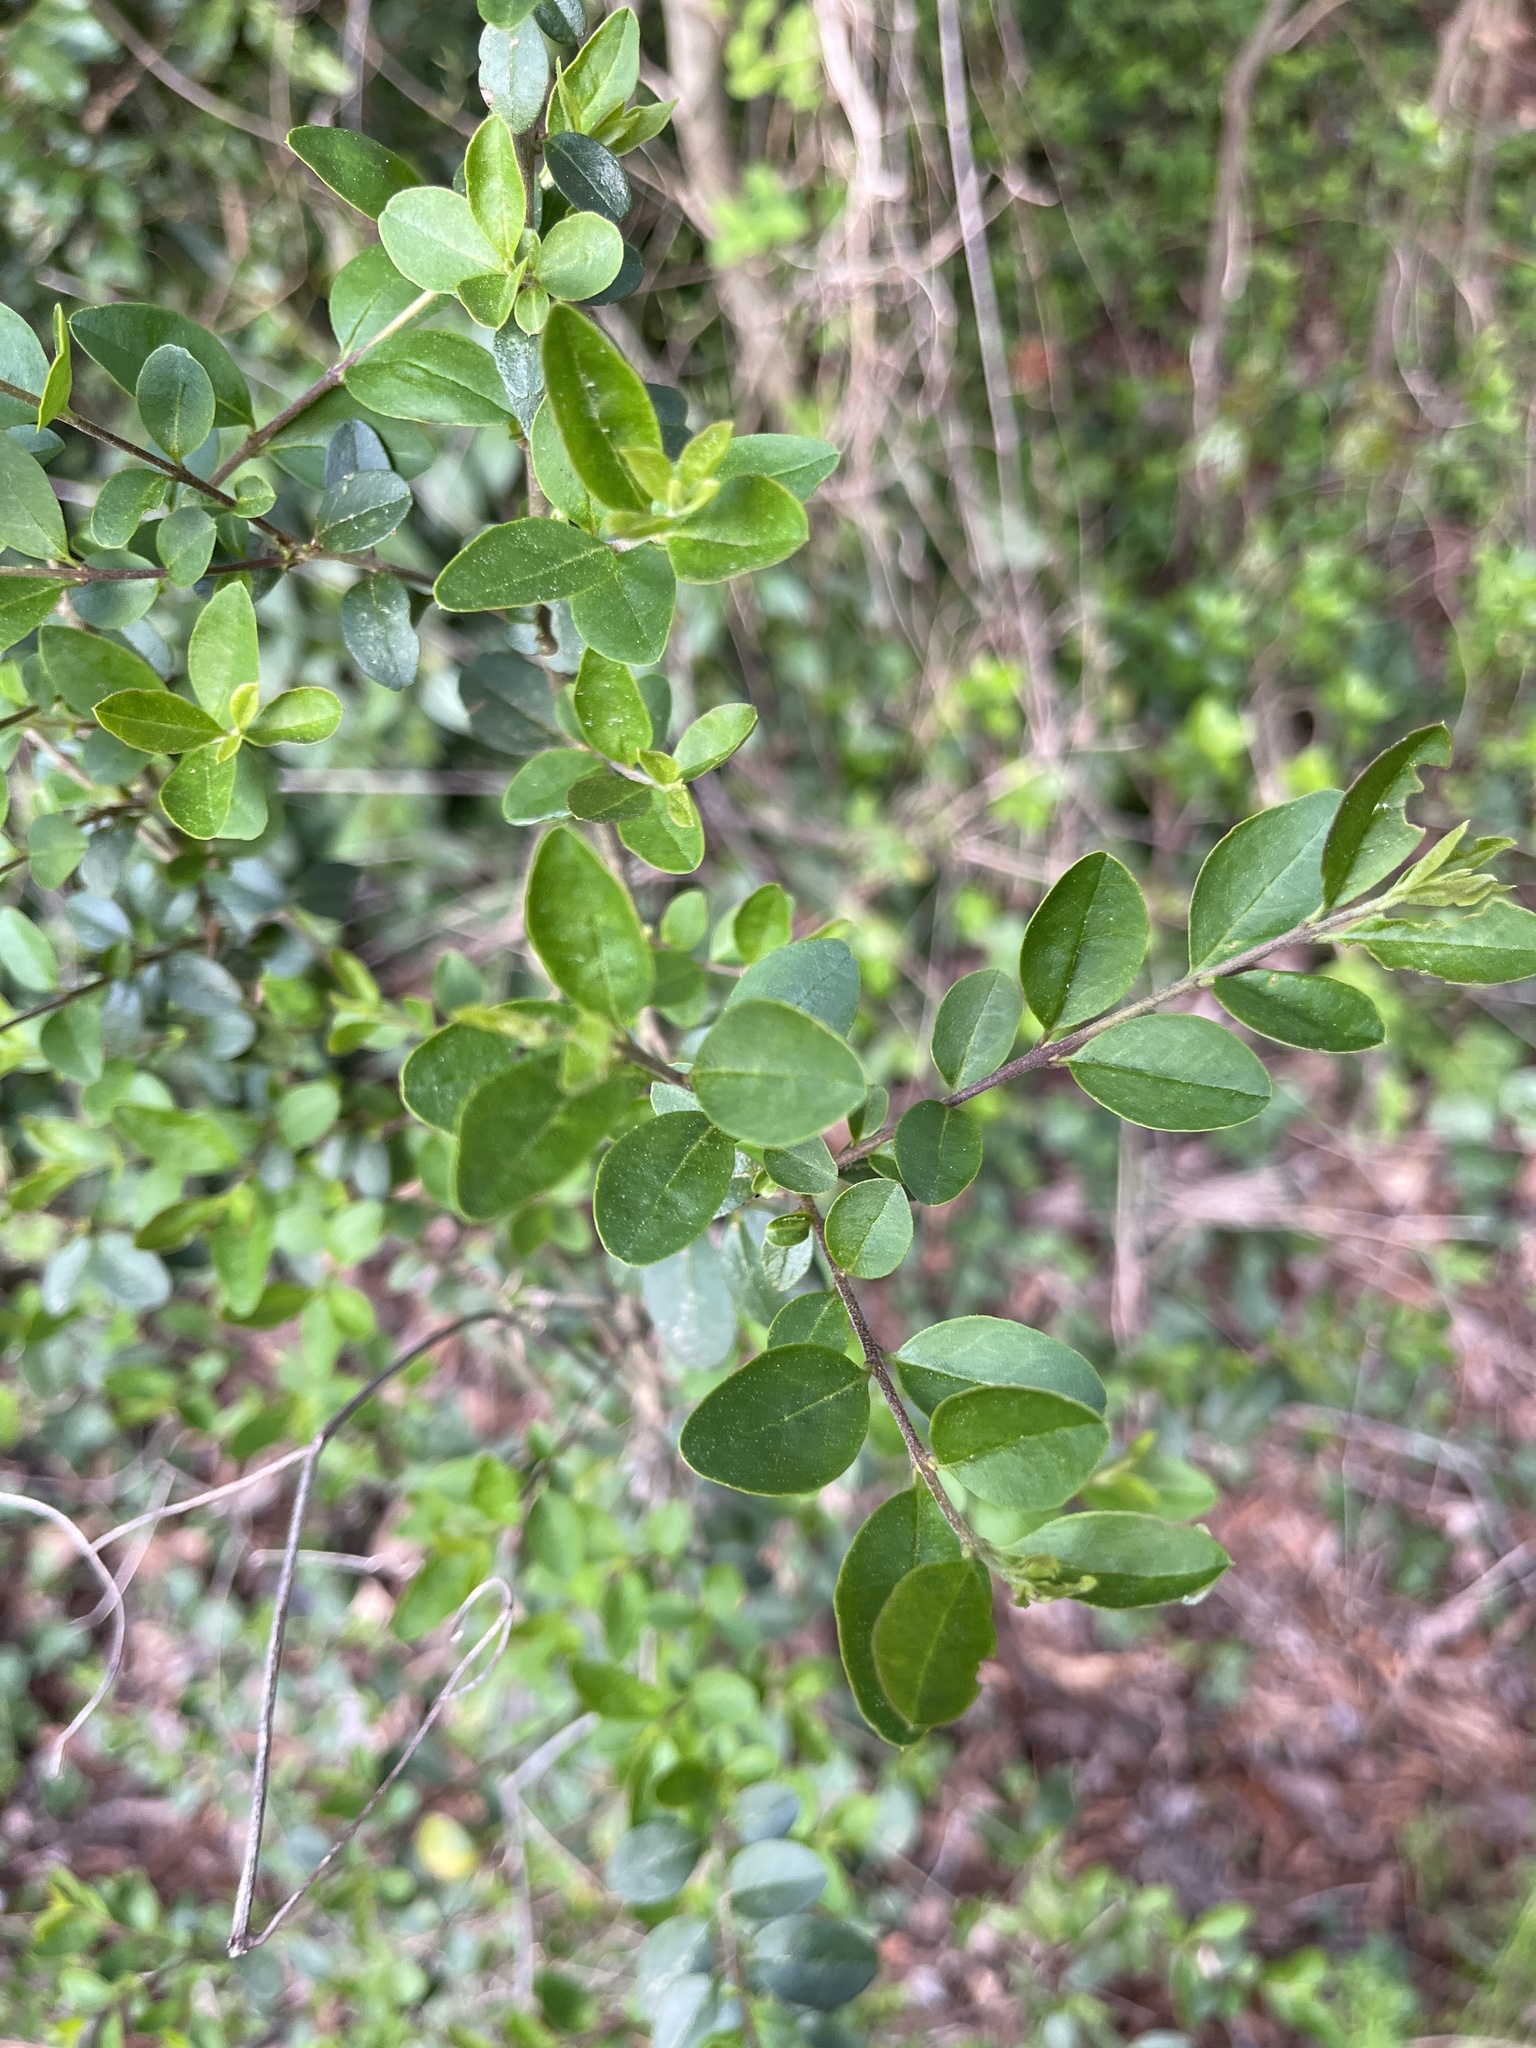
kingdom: Plantae
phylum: Tracheophyta
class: Magnoliopsida
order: Lamiales
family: Oleaceae
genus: Ligustrum
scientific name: Ligustrum sinense
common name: Chinese privet
